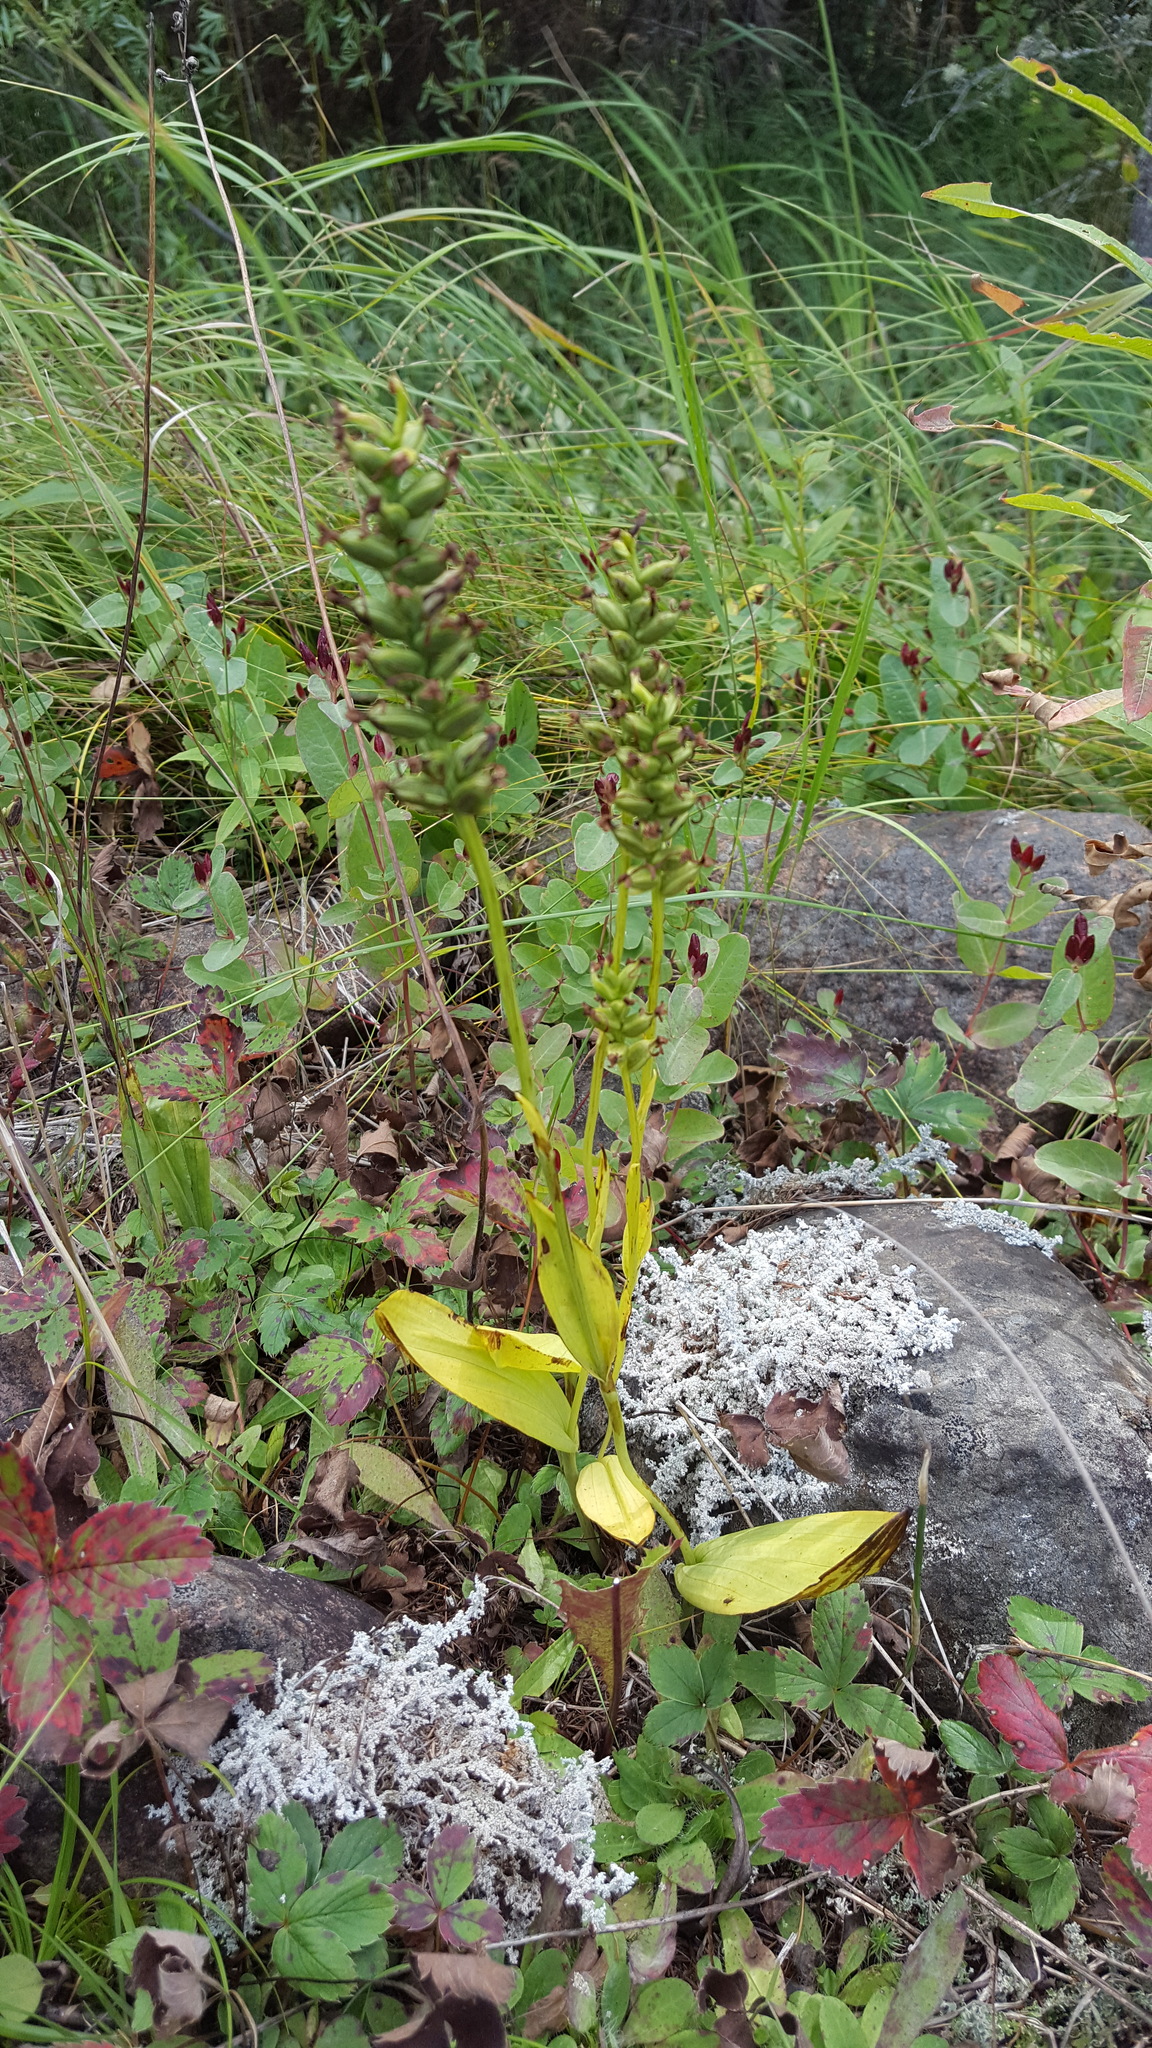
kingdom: Plantae
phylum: Tracheophyta
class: Liliopsida
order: Asparagales
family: Orchidaceae
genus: Platanthera
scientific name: Platanthera clavellata
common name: Club-spur orchid
